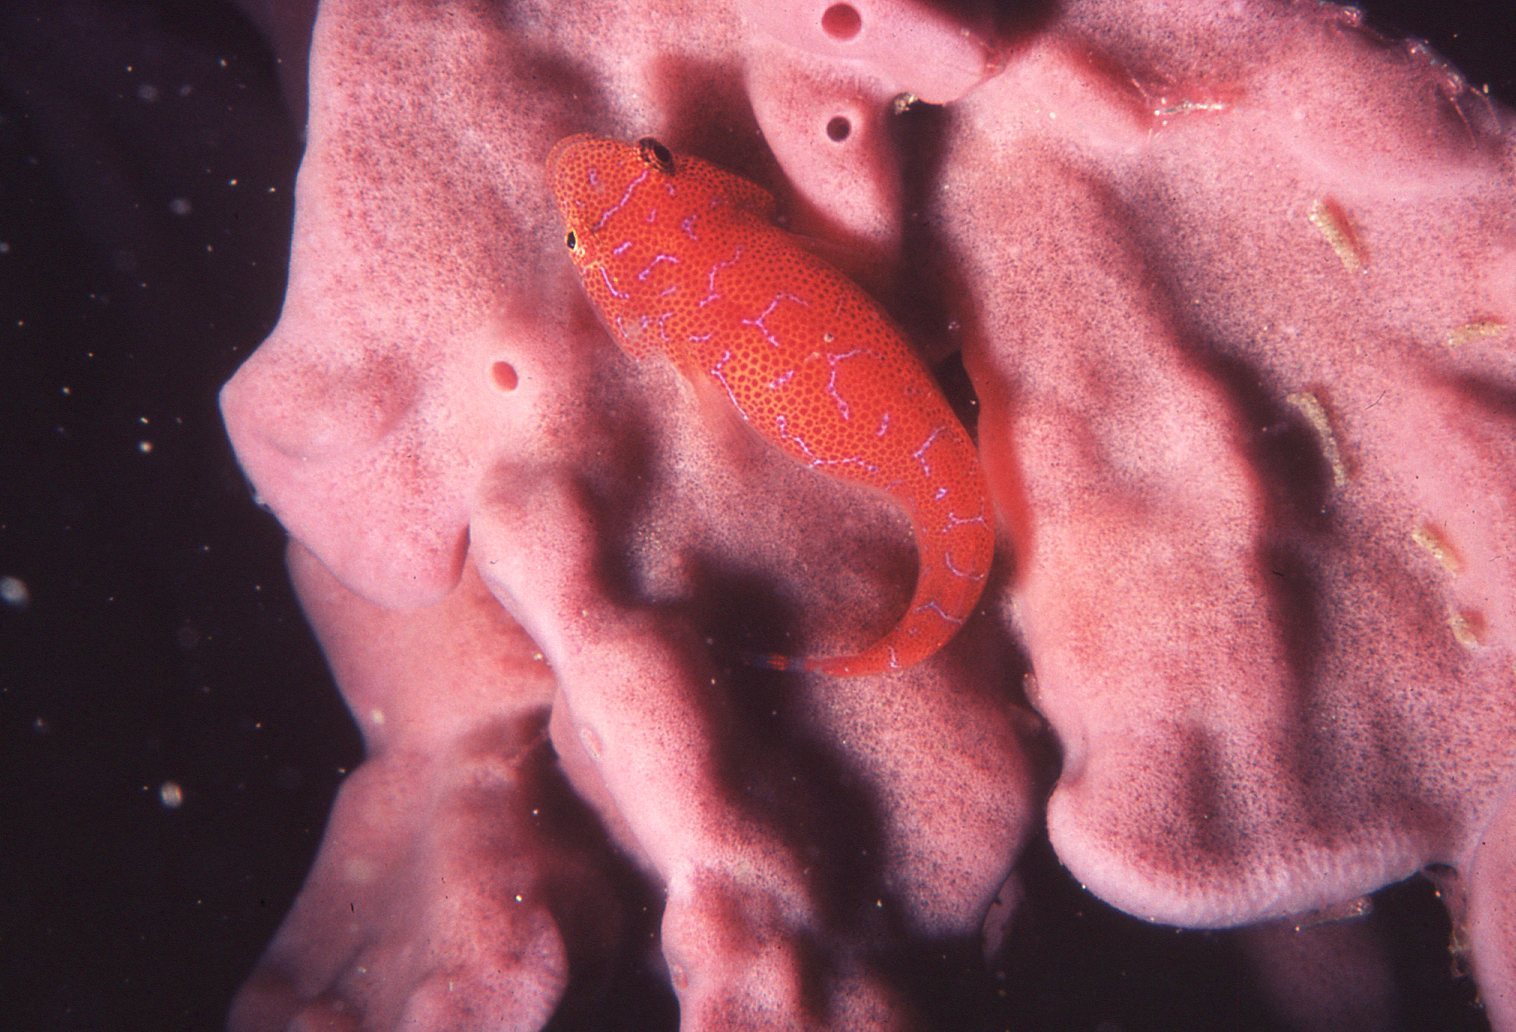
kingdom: Animalia
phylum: Chordata
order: Gobiesociformes
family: Gobiesocidae
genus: Cochleoceps
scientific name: Cochleoceps orientalis
